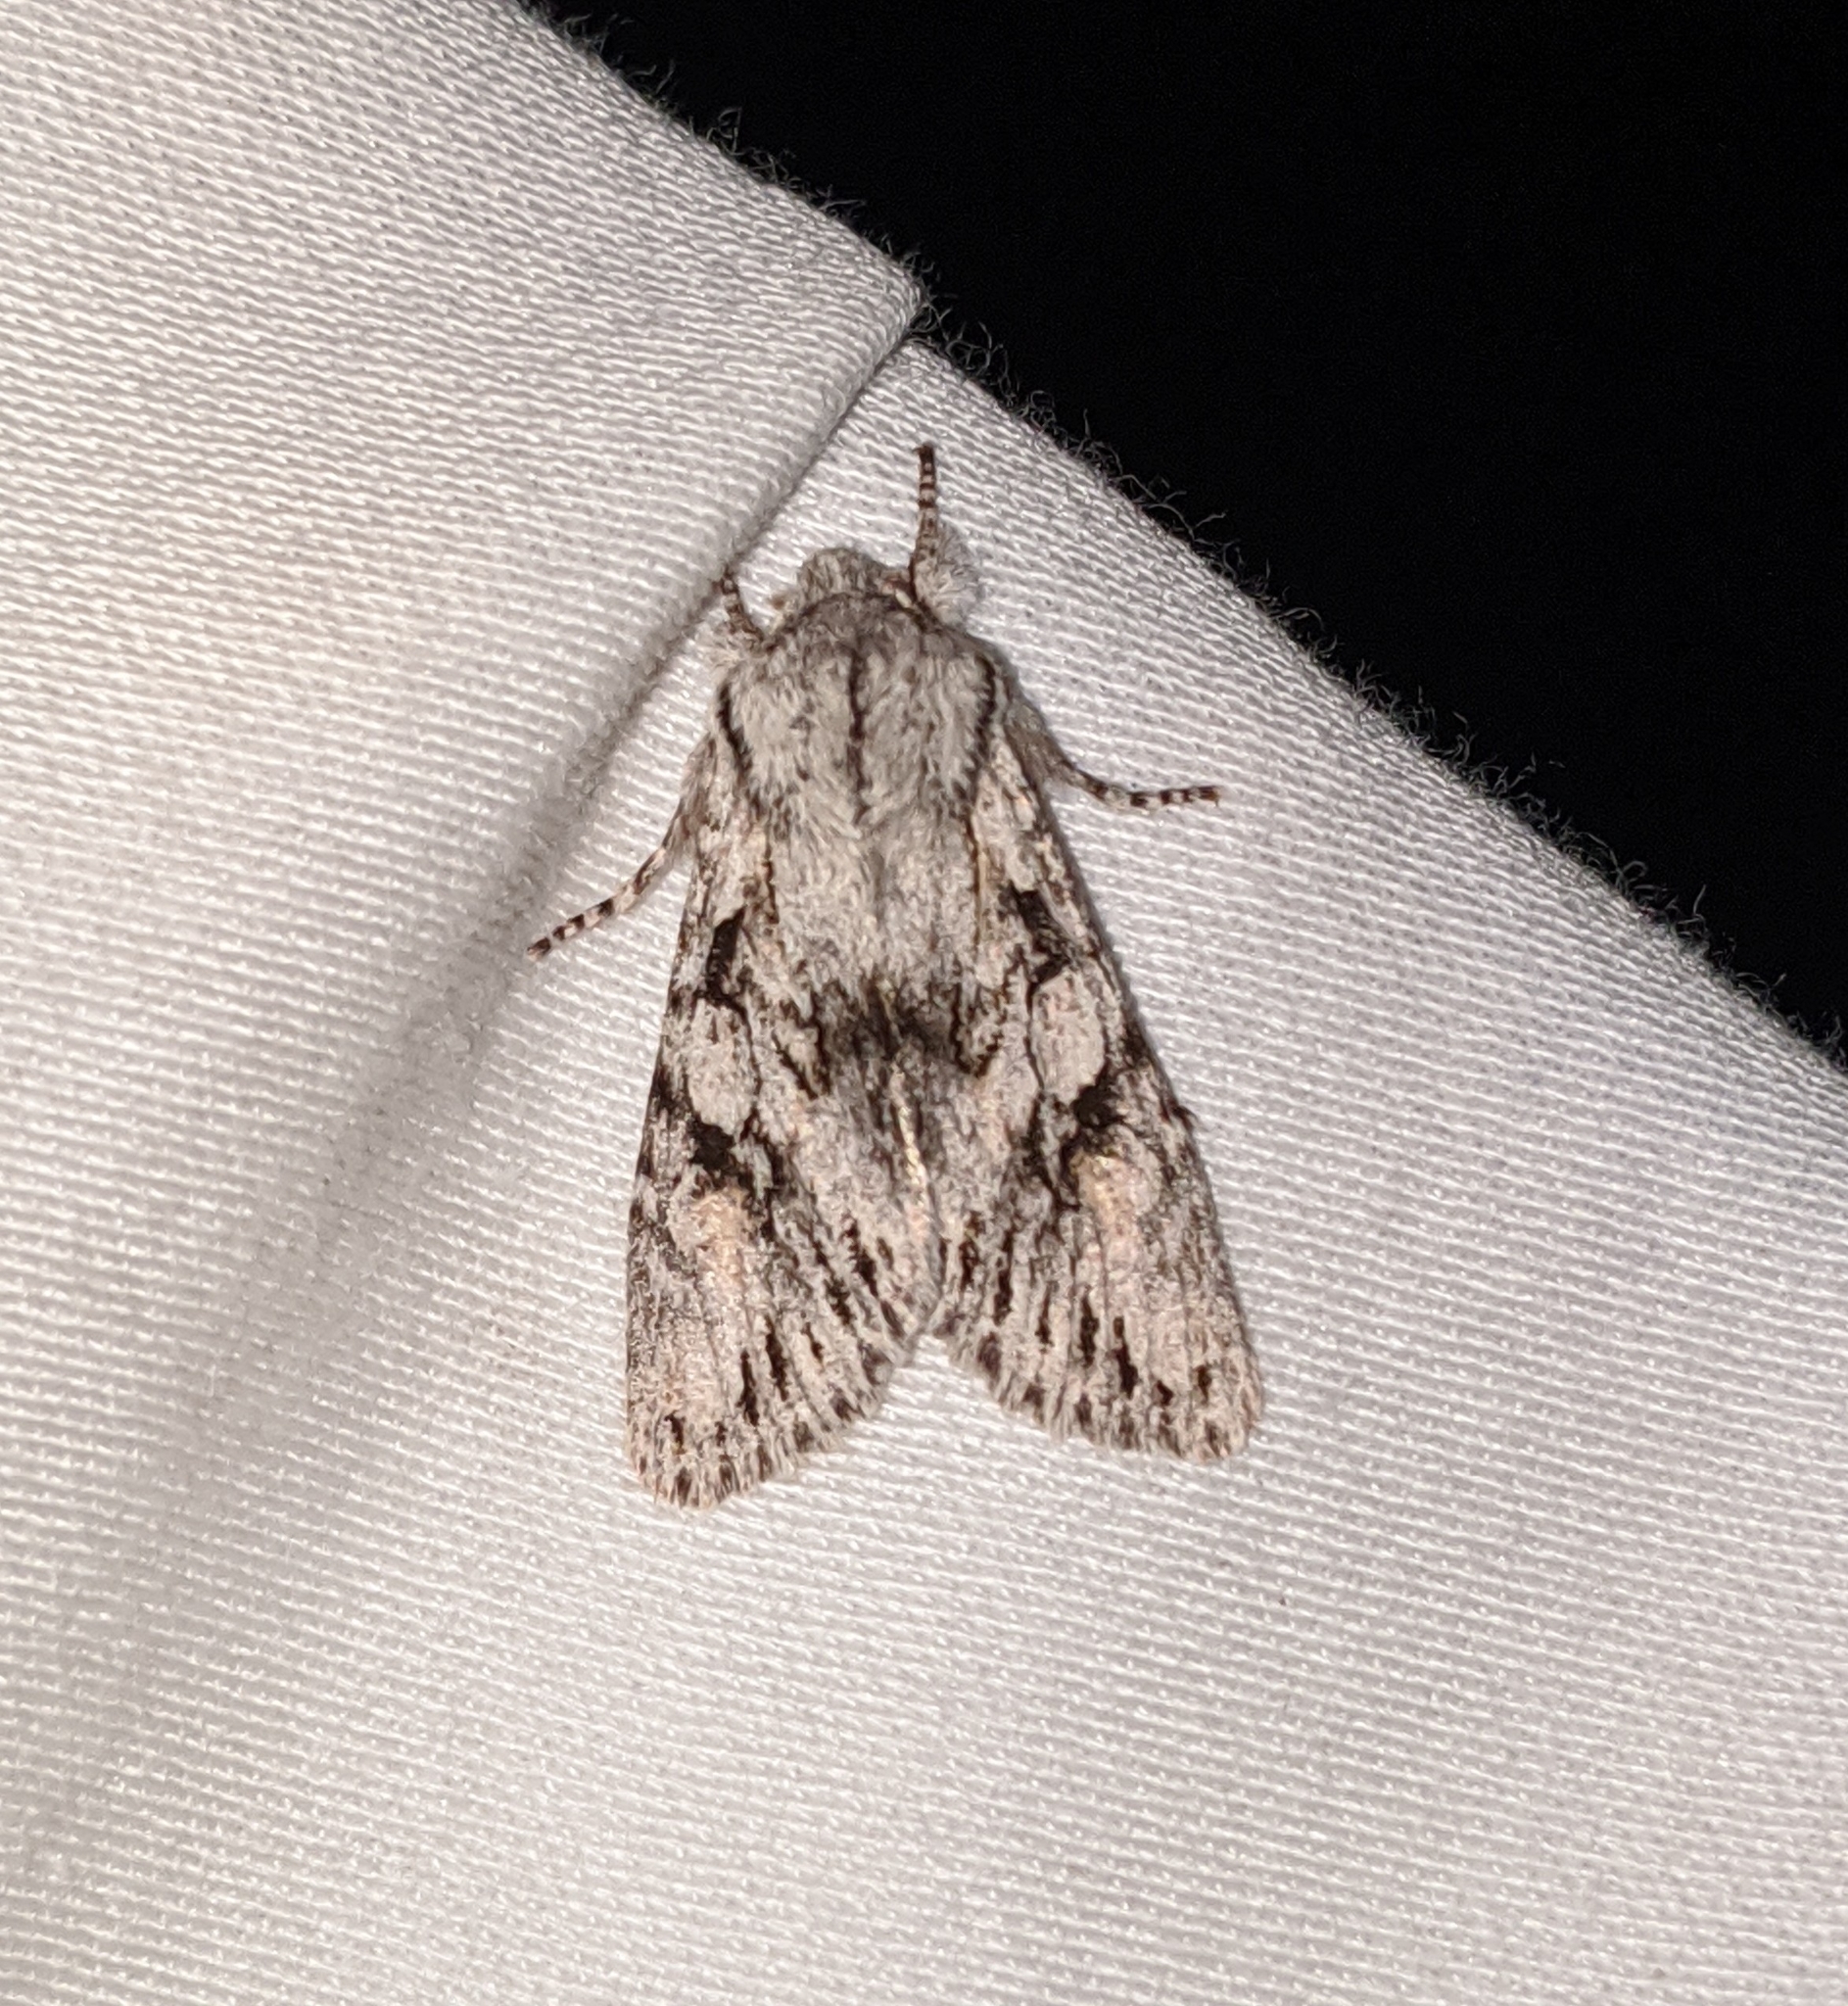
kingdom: Animalia
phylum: Arthropoda
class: Insecta
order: Lepidoptera
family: Noctuidae
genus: Egira
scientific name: Egira simplex
